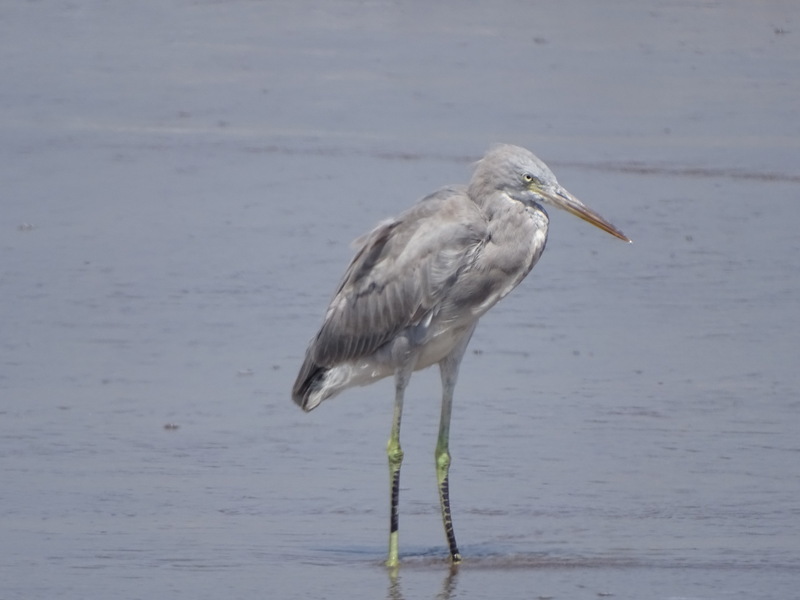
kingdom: Animalia
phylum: Chordata
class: Aves
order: Pelecaniformes
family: Ardeidae
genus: Egretta
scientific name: Egretta gularis
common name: Western reef-heron
